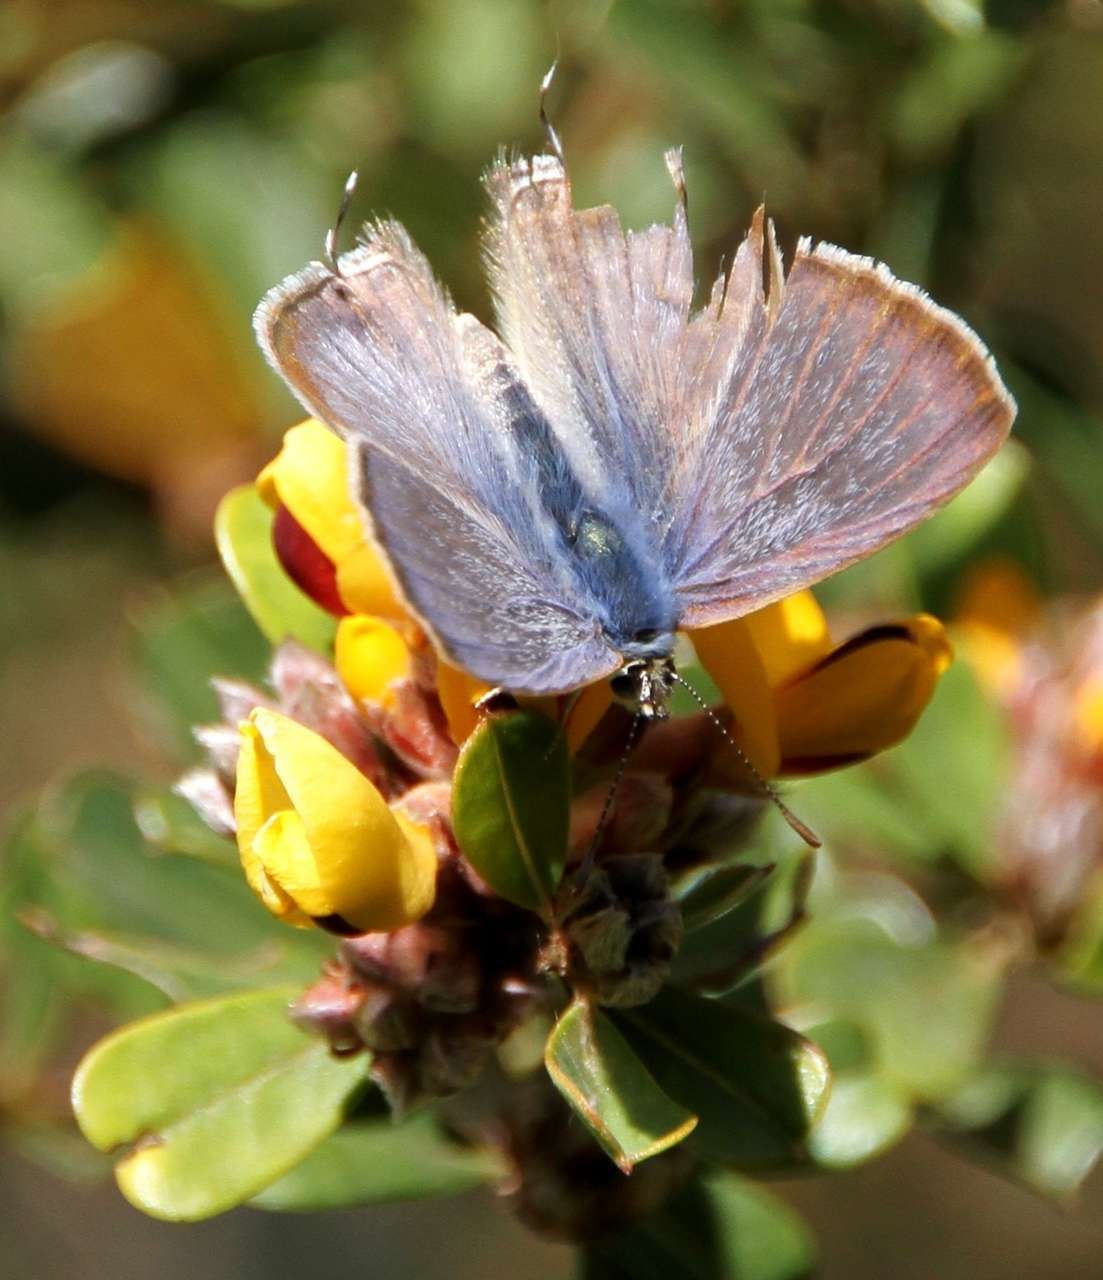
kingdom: Animalia
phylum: Arthropoda
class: Insecta
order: Lepidoptera
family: Lycaenidae
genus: Lampides
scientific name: Lampides boeticus
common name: Long-tailed blue
